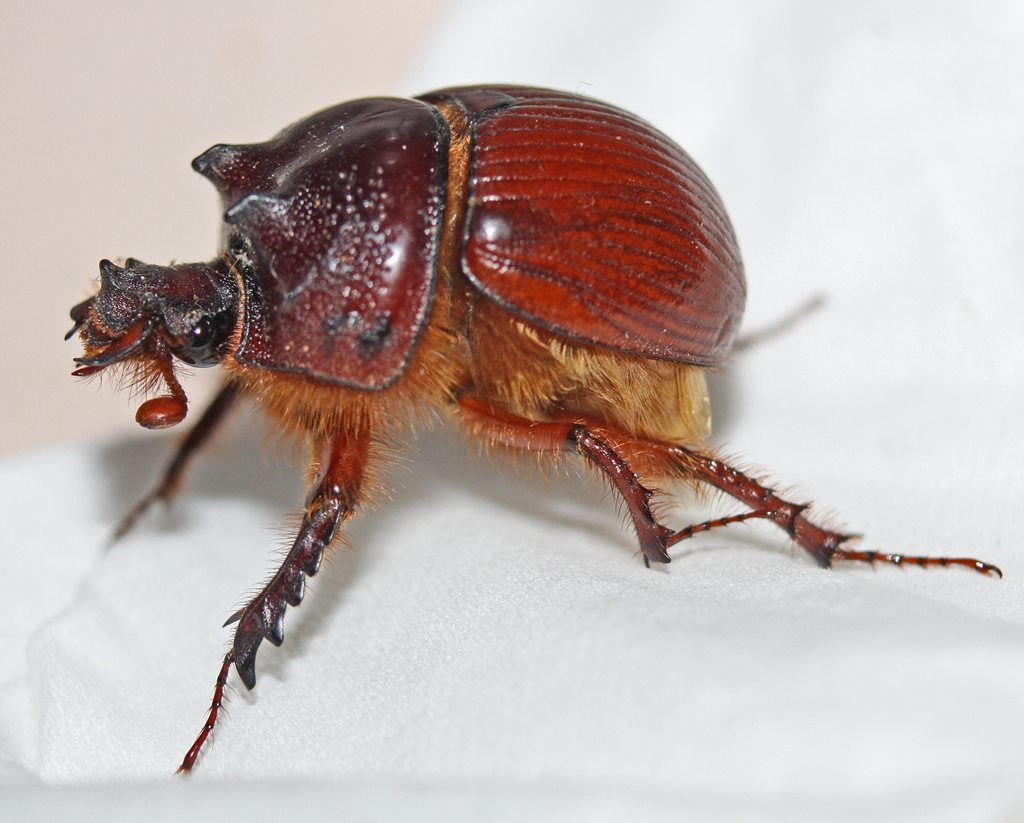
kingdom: Animalia
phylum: Arthropoda
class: Insecta
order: Coleoptera
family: Geotrupidae
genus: Bolboleaus
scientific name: Bolboleaus quadriarmigerus
